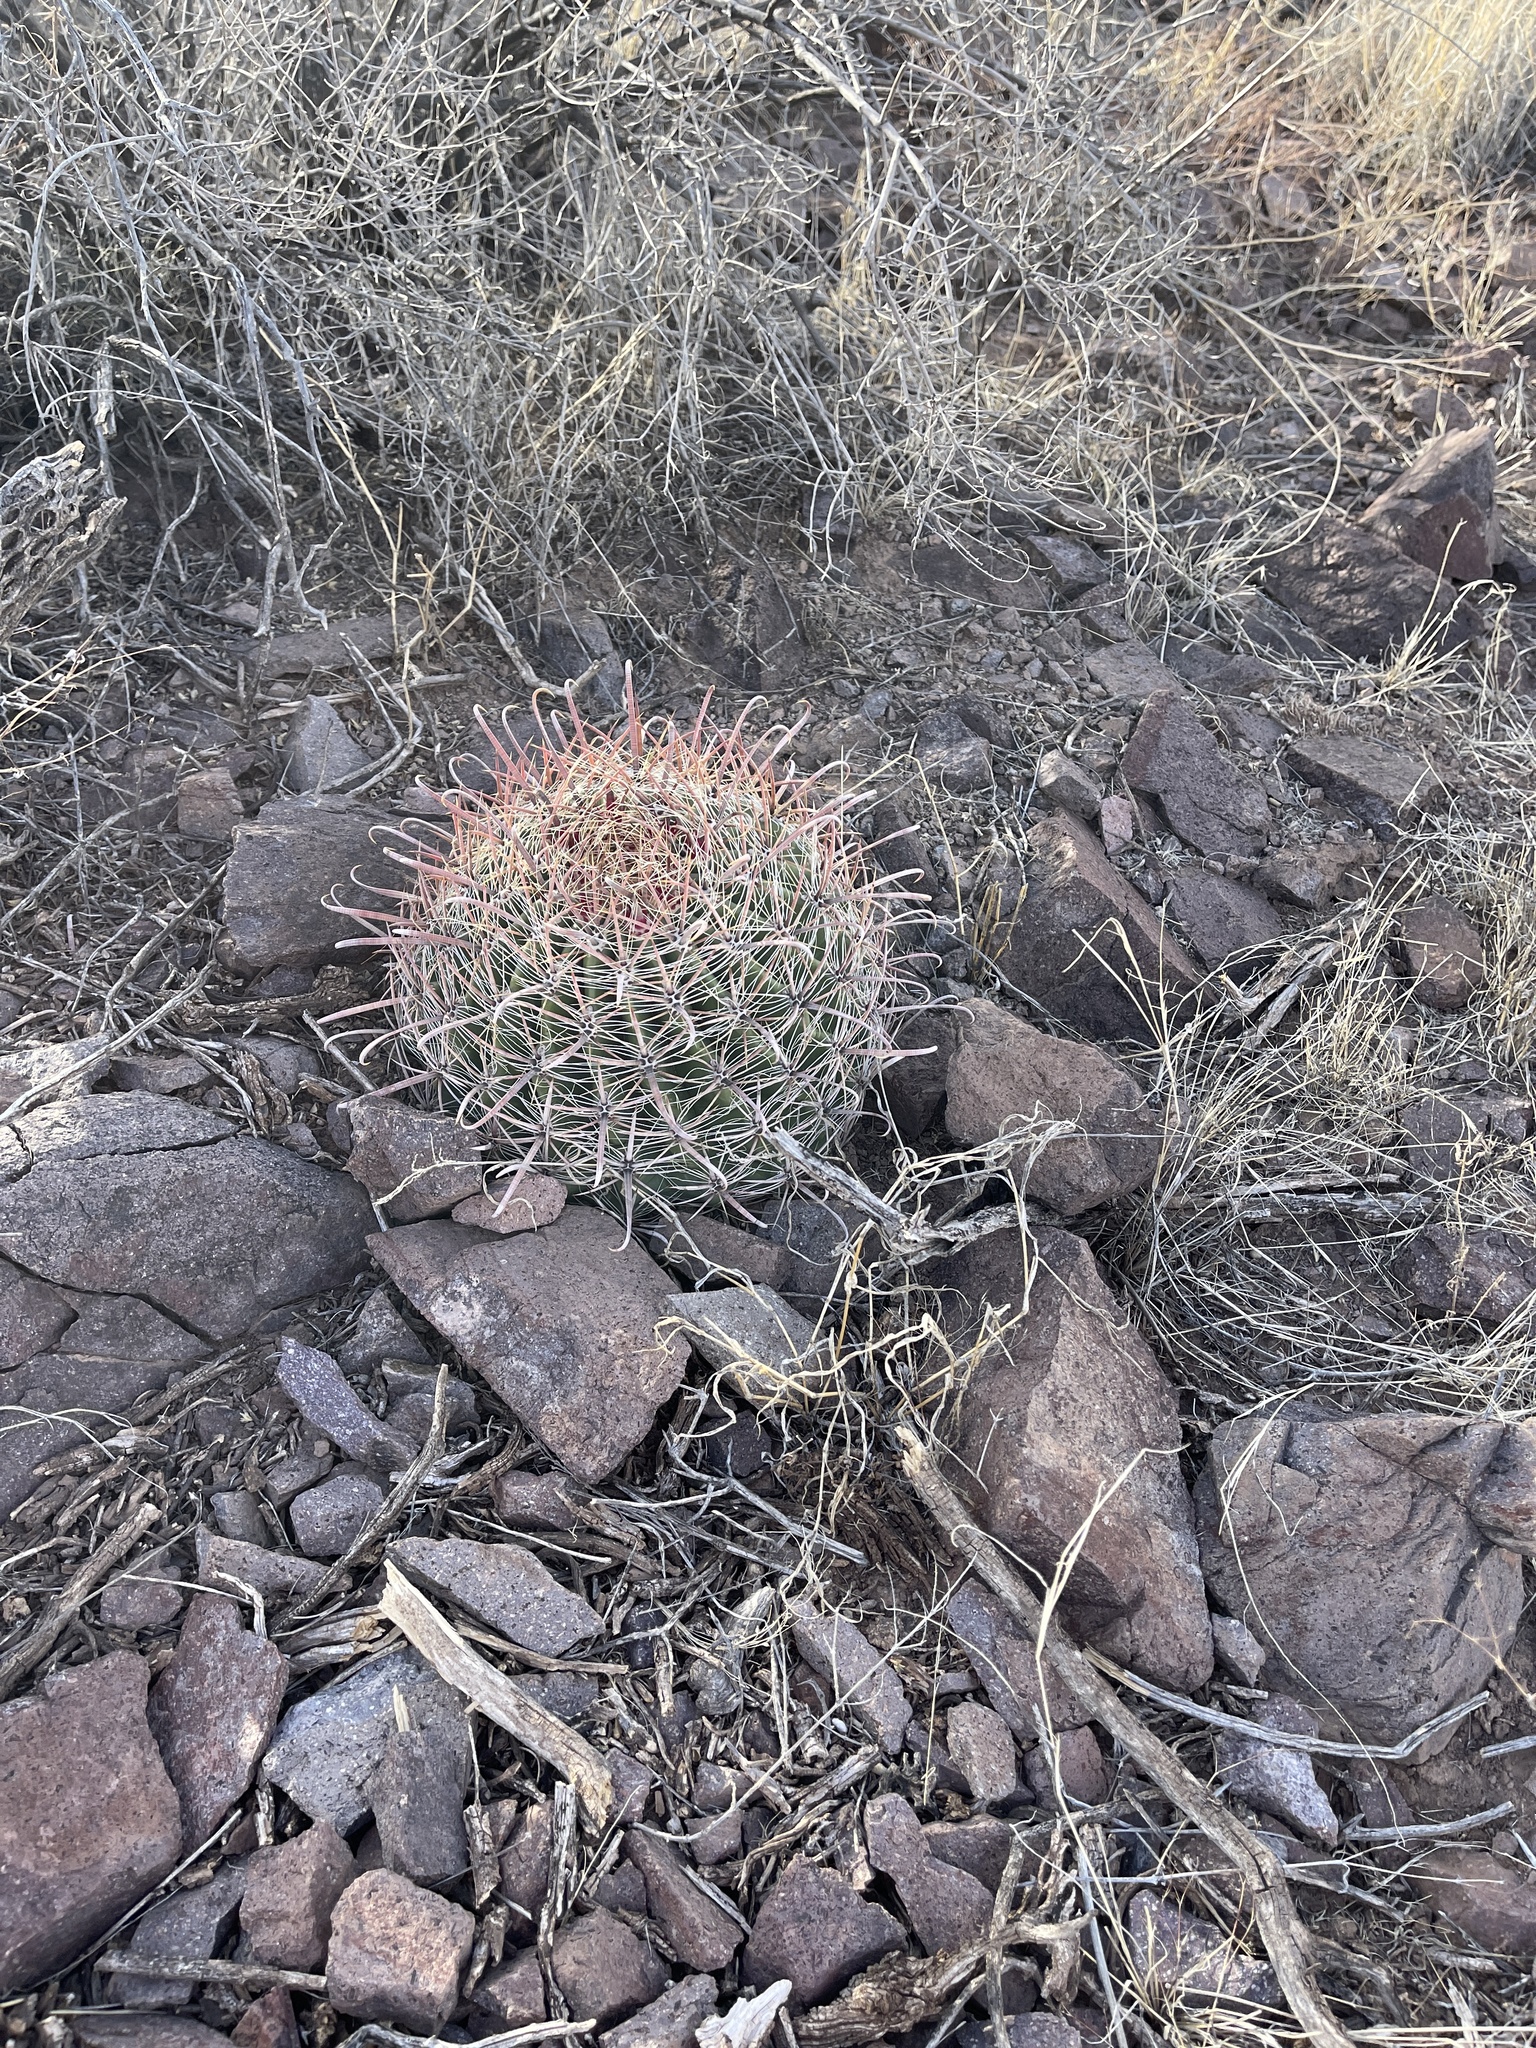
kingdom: Plantae
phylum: Tracheophyta
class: Magnoliopsida
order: Caryophyllales
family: Cactaceae
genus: Ferocactus
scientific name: Ferocactus wislizeni
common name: Candy barrel cactus
